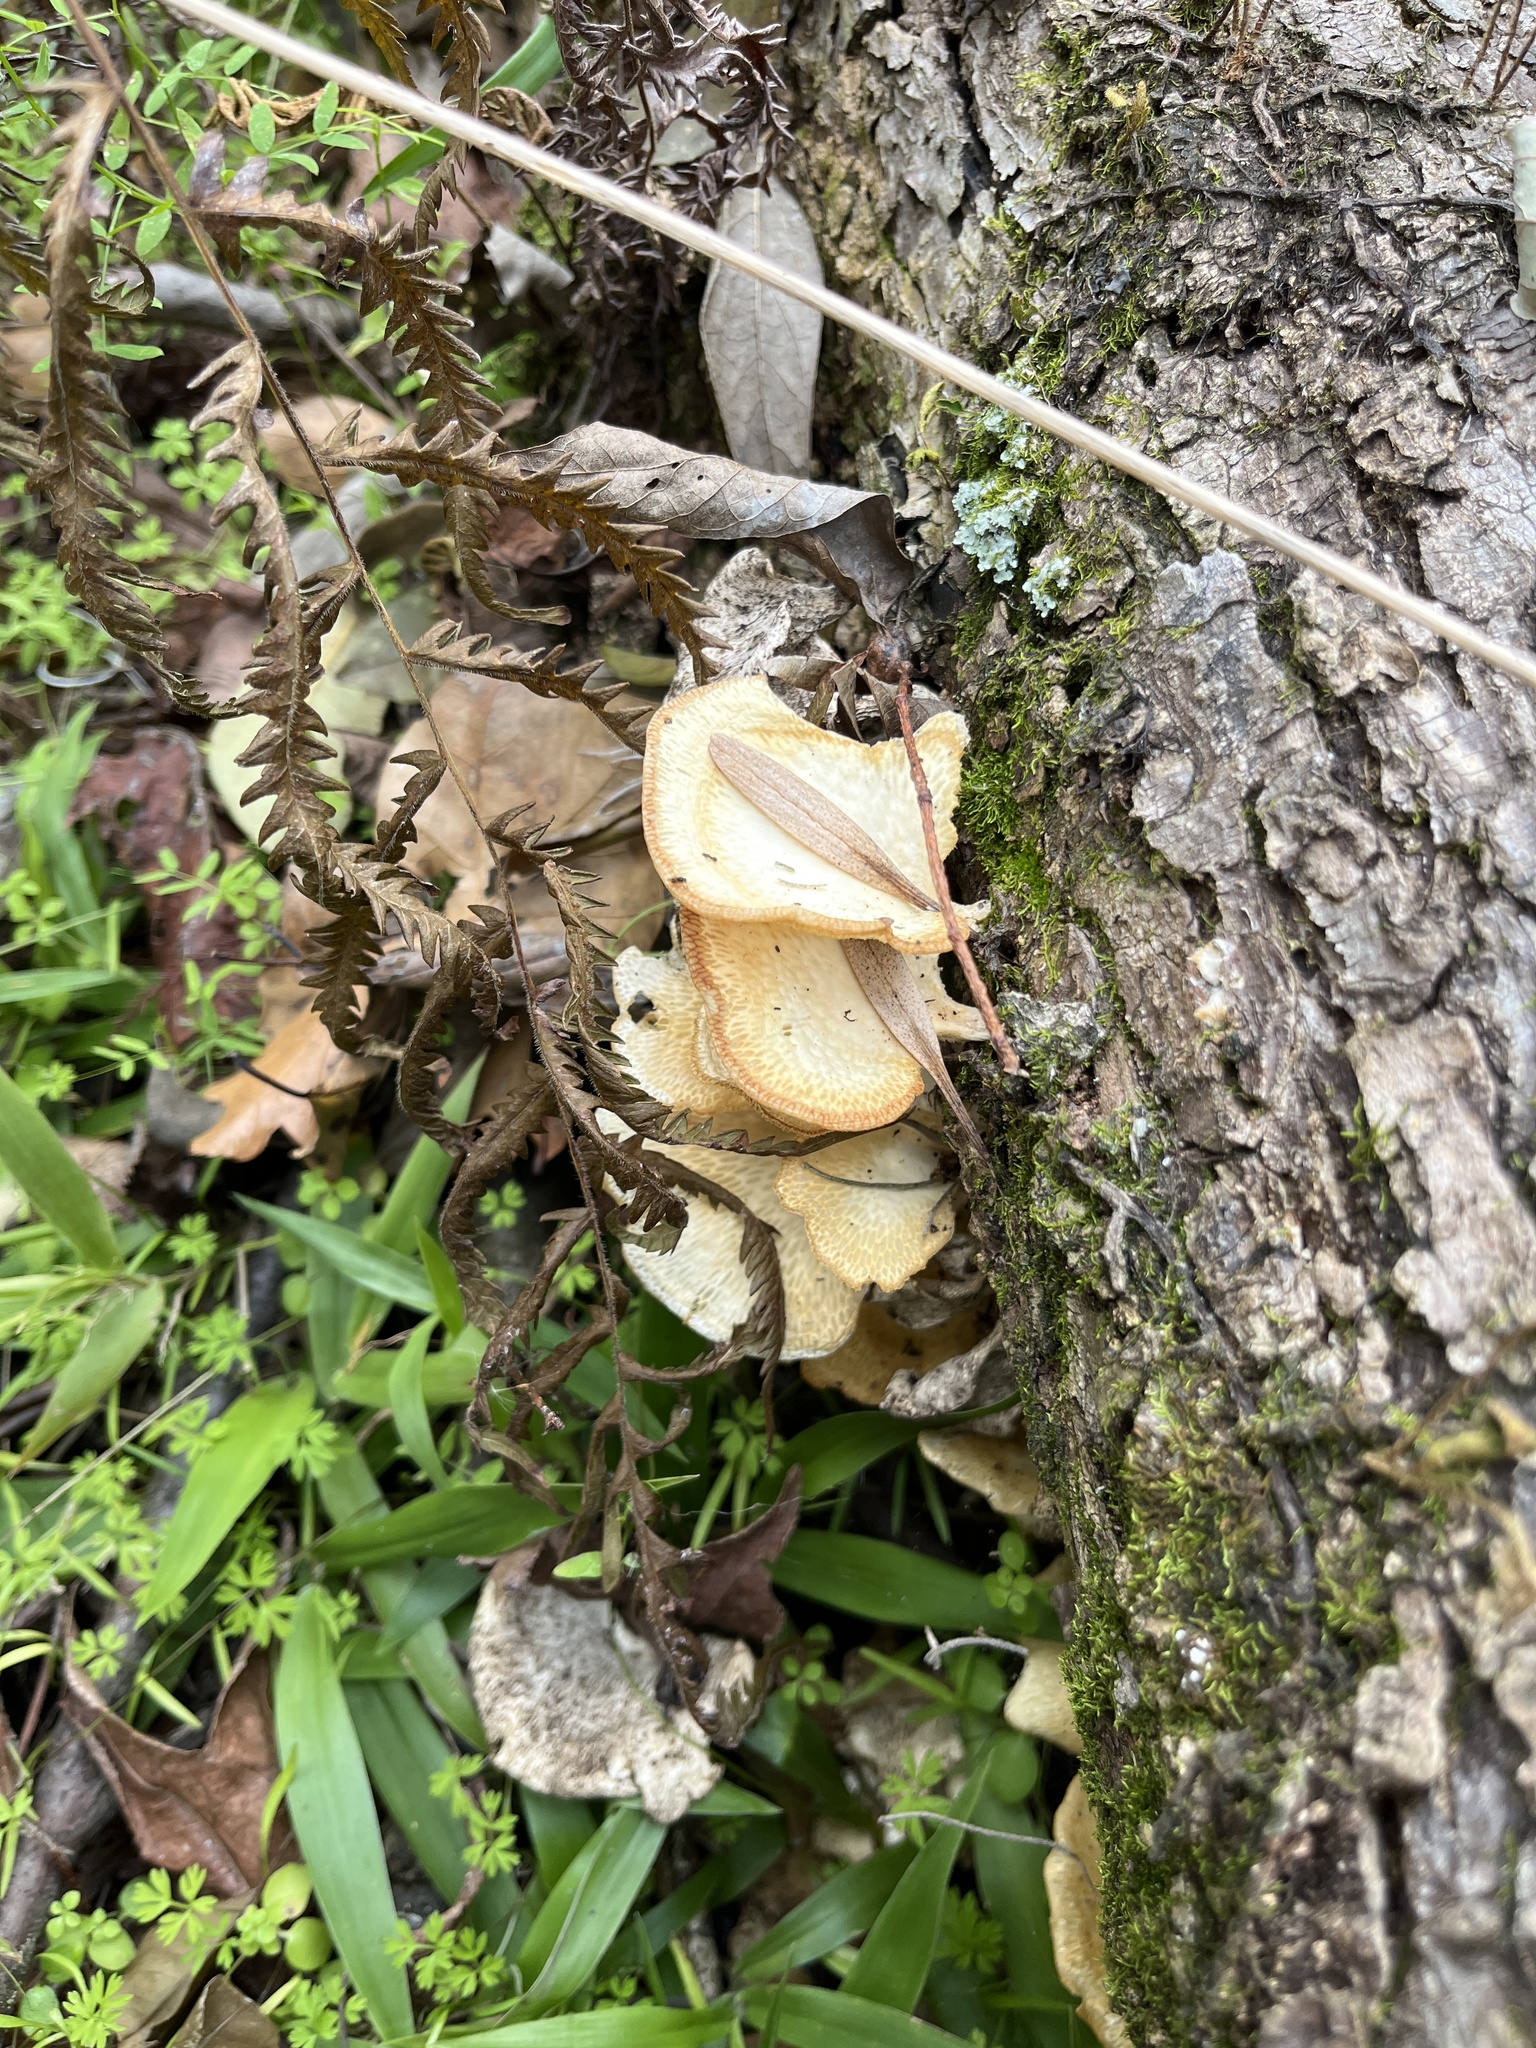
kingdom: Fungi
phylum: Basidiomycota
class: Agaricomycetes
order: Polyporales
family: Polyporaceae
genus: Favolus
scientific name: Favolus tenuiculus
